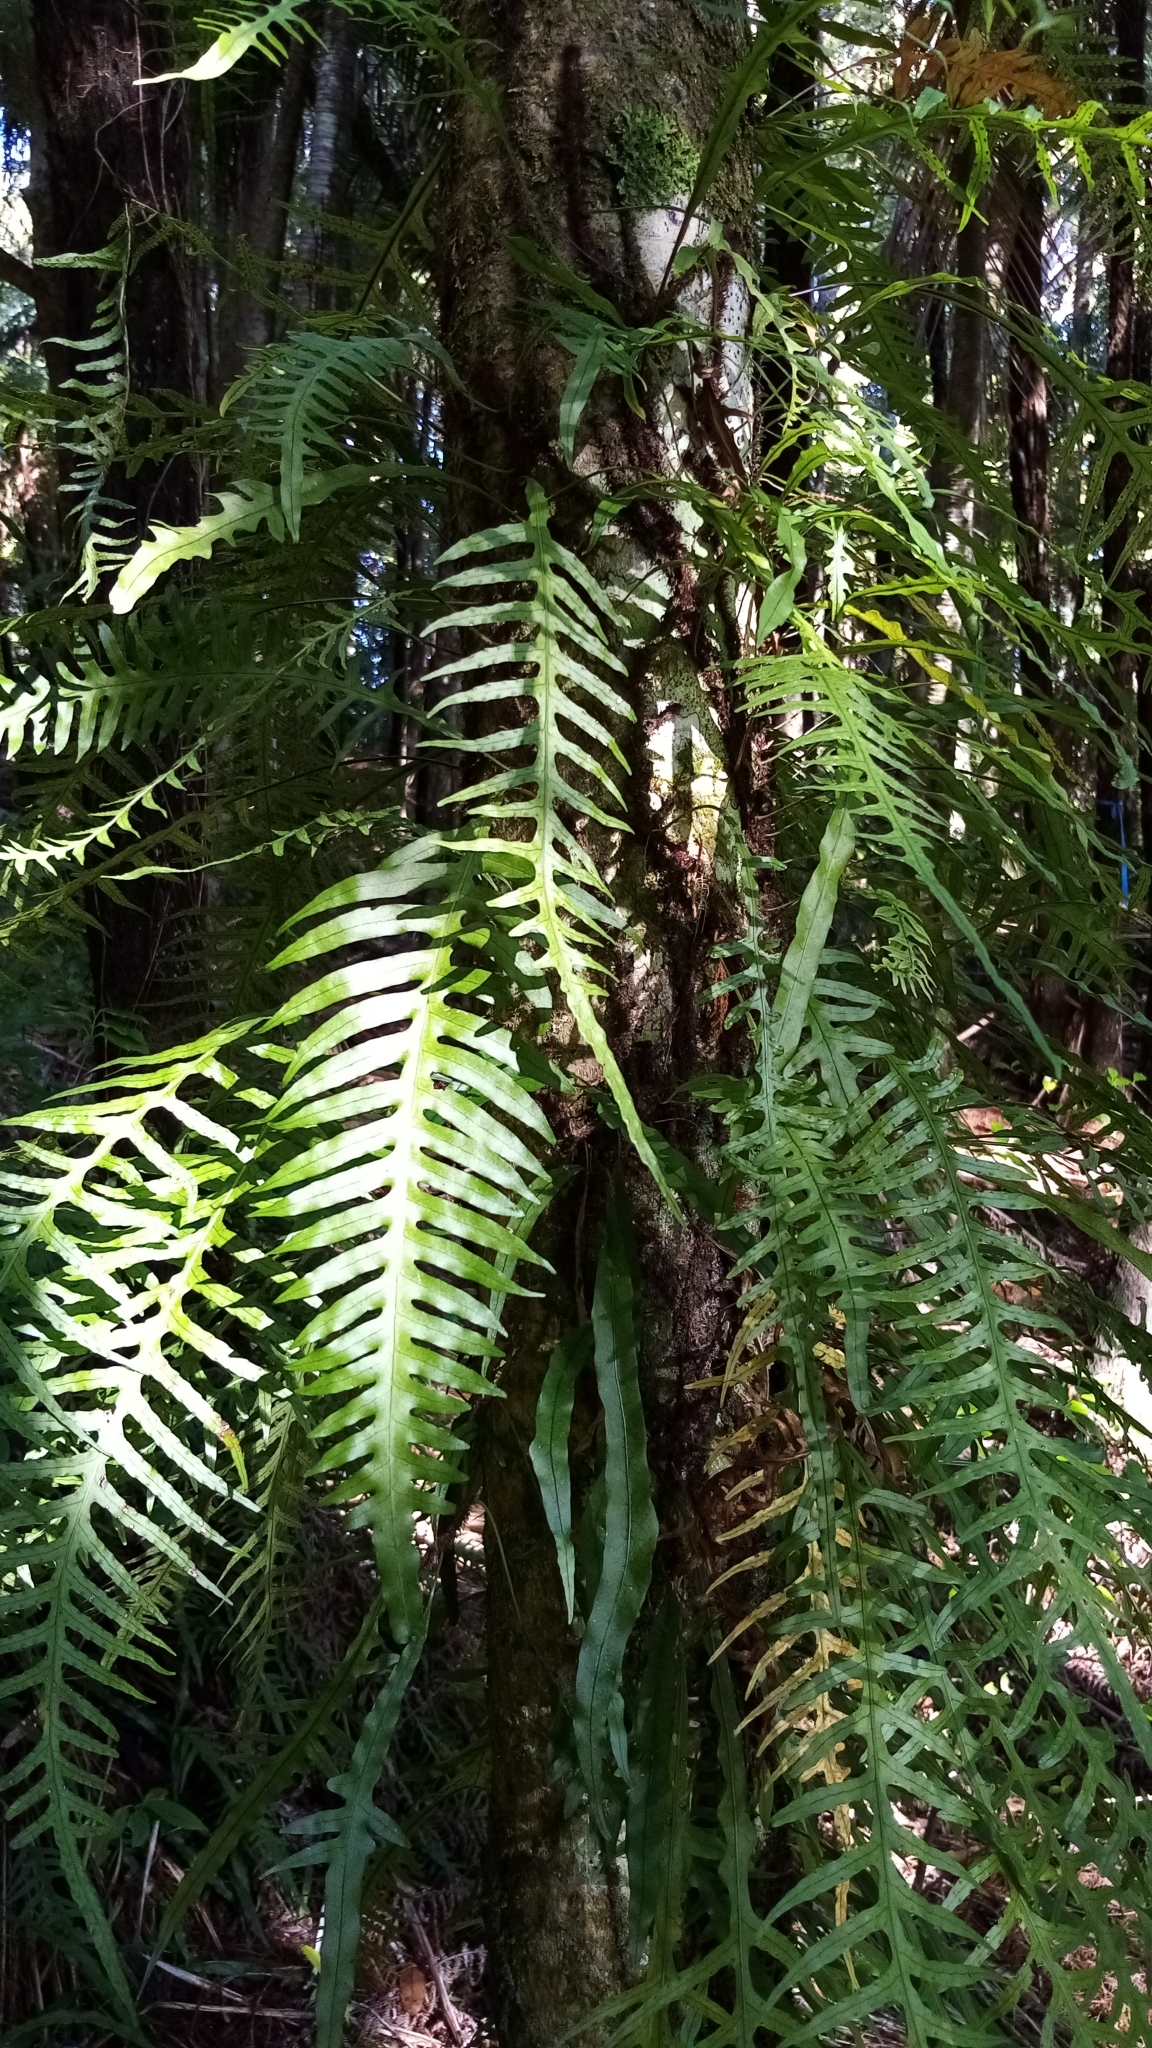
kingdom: Plantae
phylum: Tracheophyta
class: Polypodiopsida
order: Polypodiales
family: Polypodiaceae
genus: Lecanopteris
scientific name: Lecanopteris scandens
